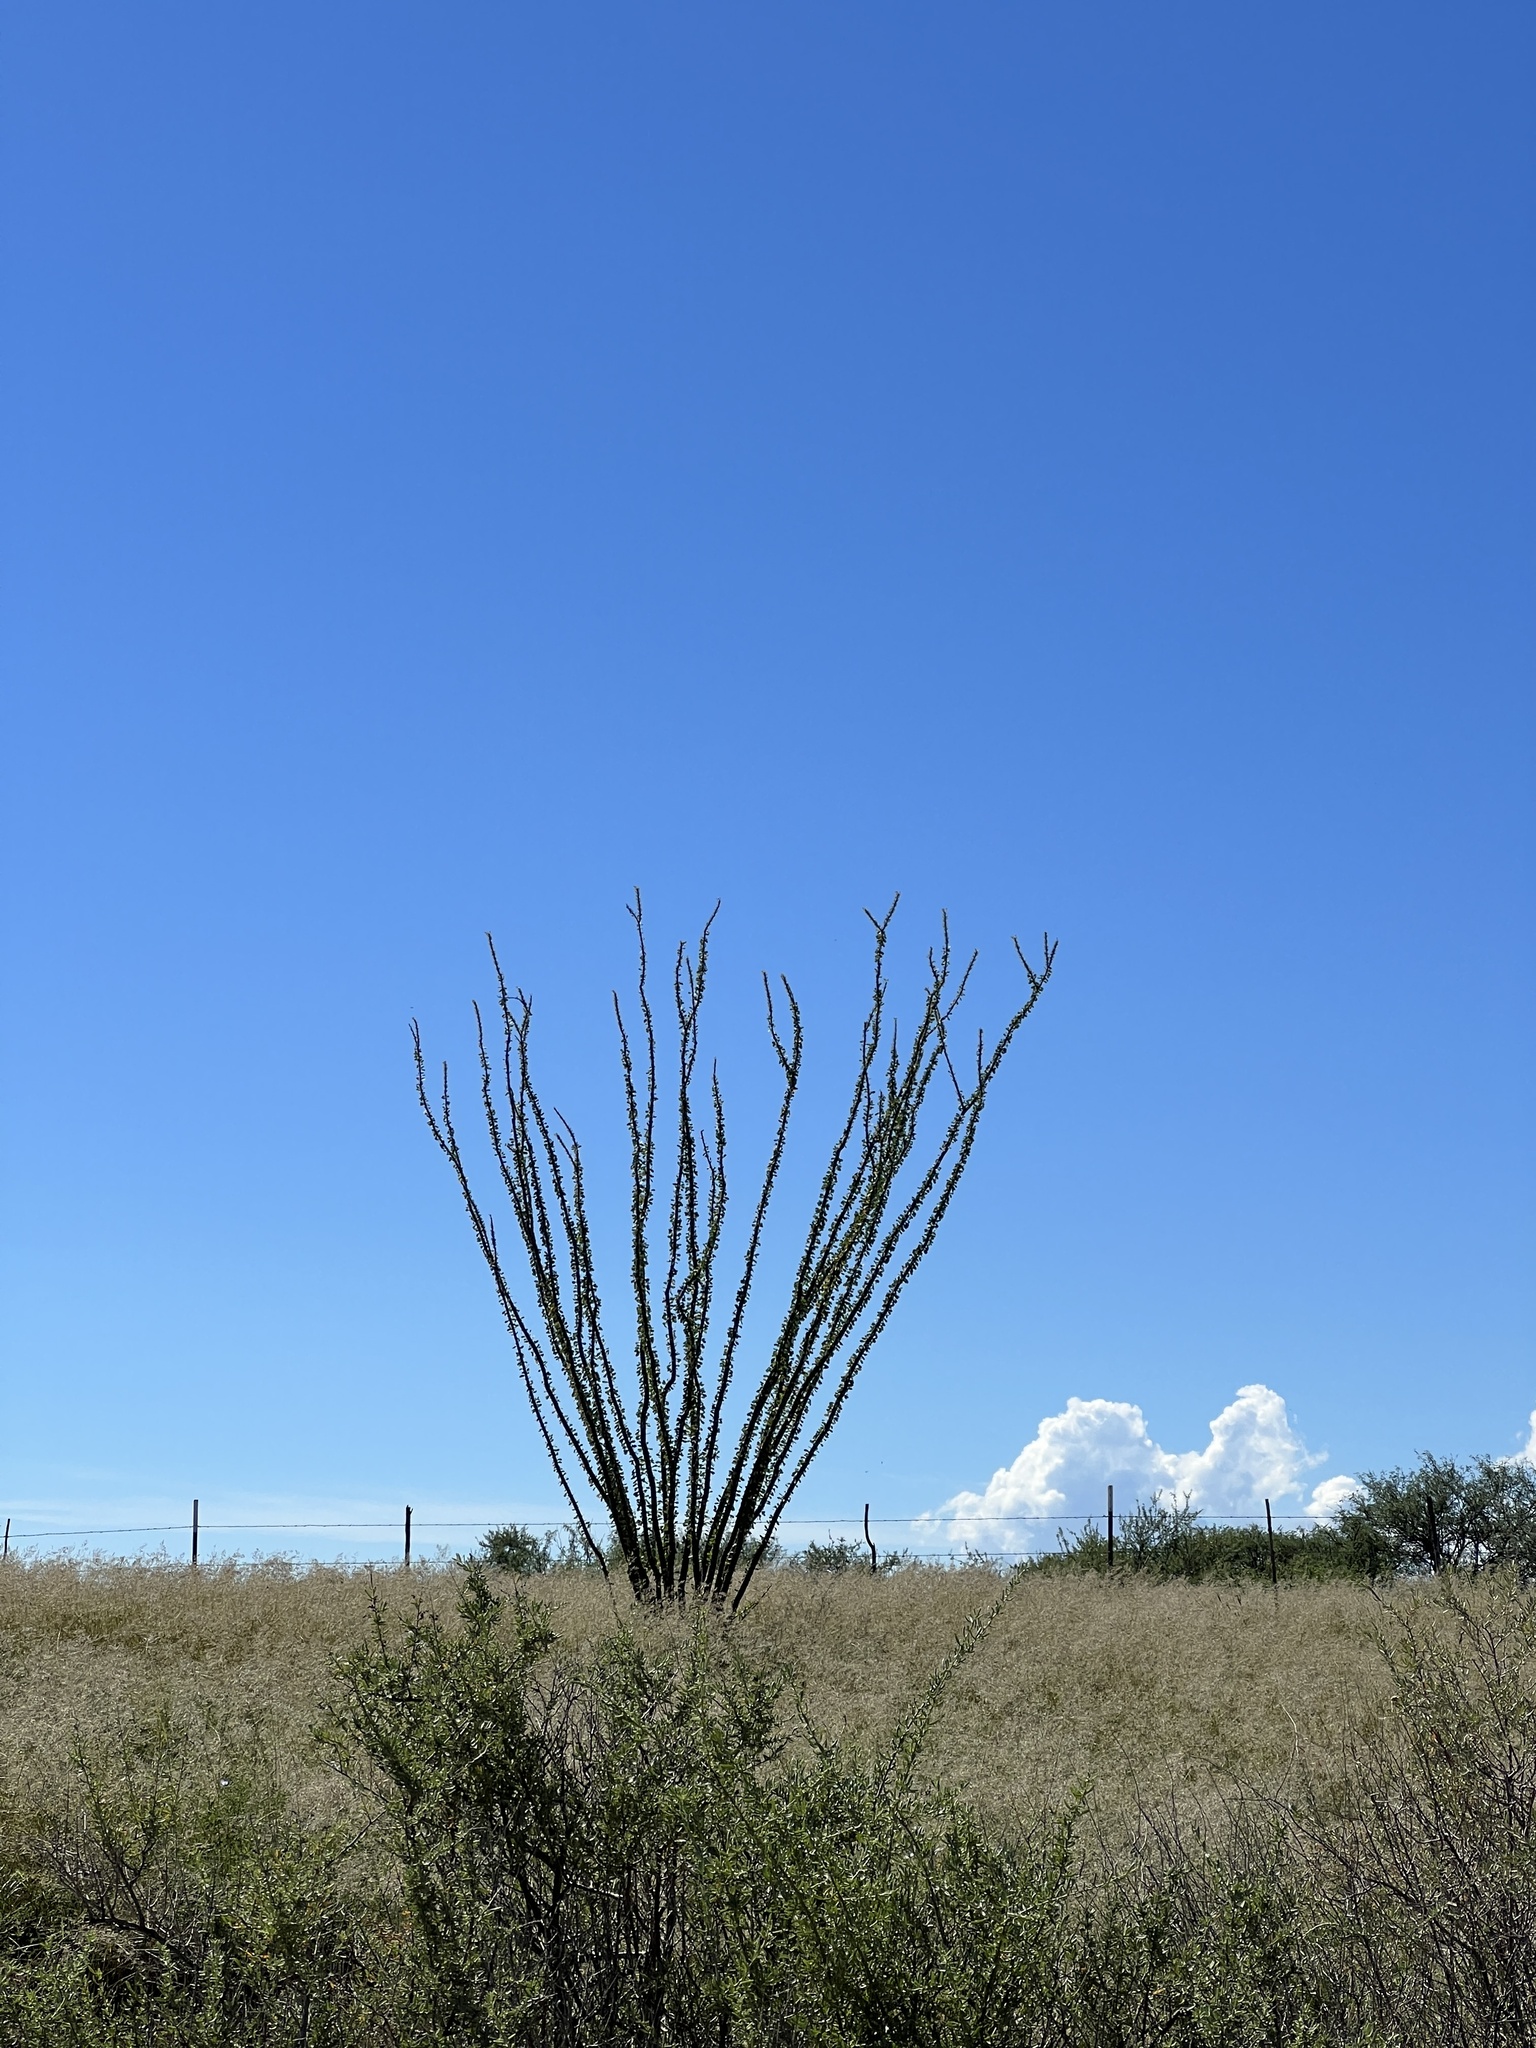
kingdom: Plantae
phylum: Tracheophyta
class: Magnoliopsida
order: Ericales
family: Fouquieriaceae
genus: Fouquieria
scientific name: Fouquieria splendens
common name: Vine-cactus
